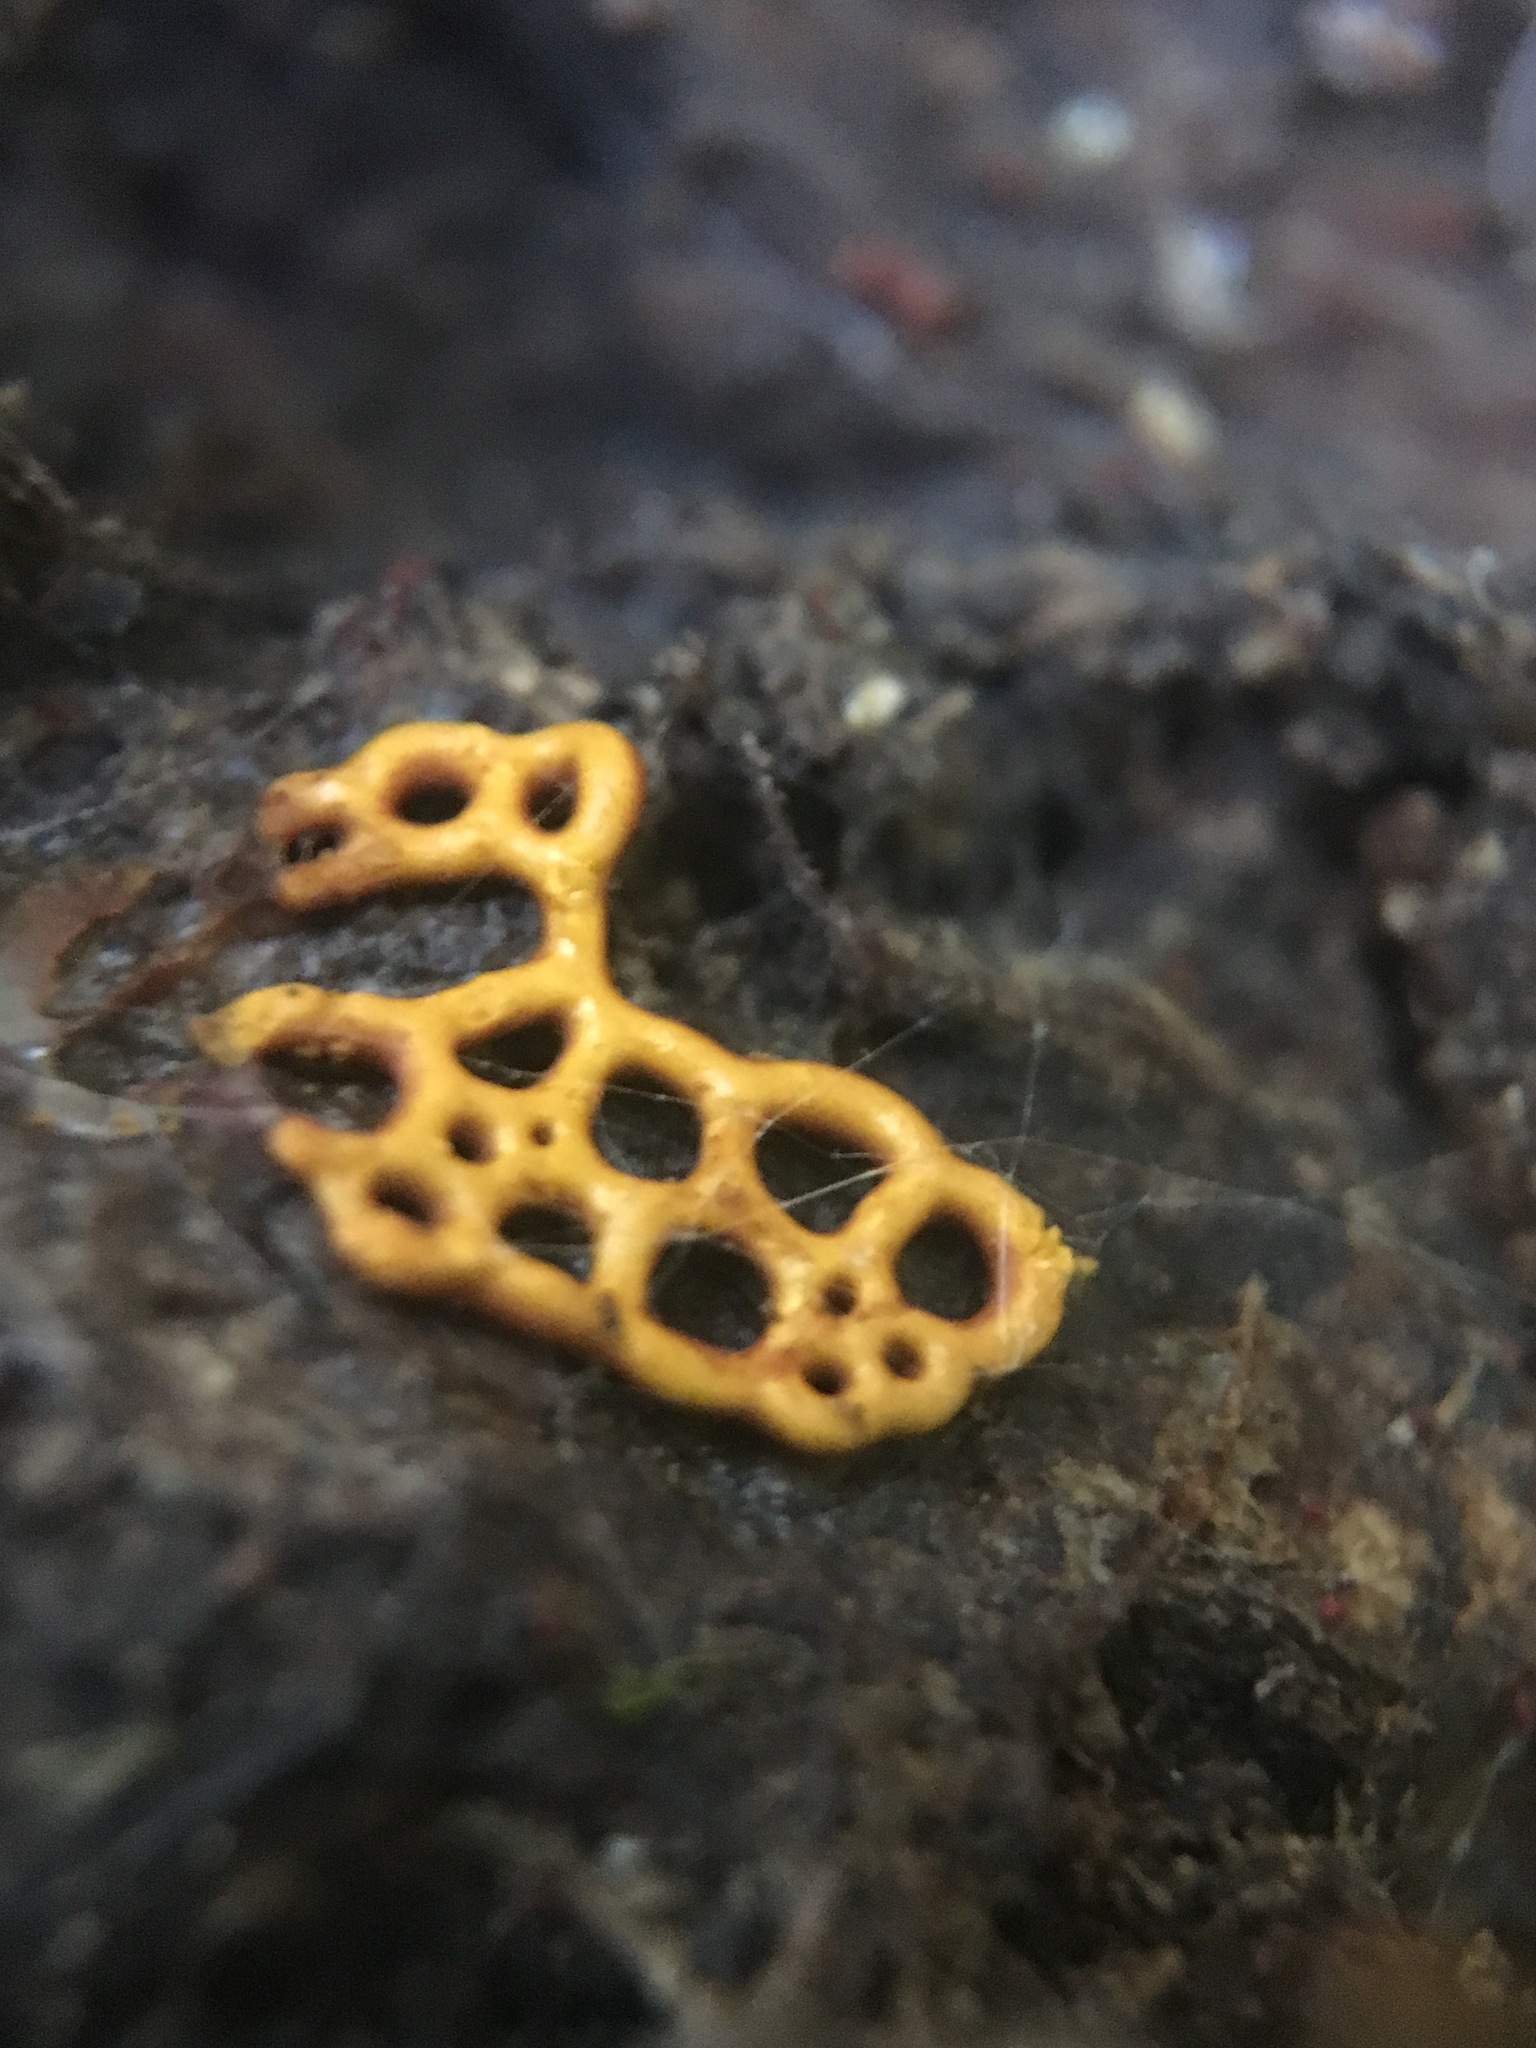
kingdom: Protozoa
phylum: Mycetozoa
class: Myxomycetes
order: Trichiales
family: Arcyriaceae
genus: Hemitrichia
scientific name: Hemitrichia serpula
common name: Pretzel slime mold
